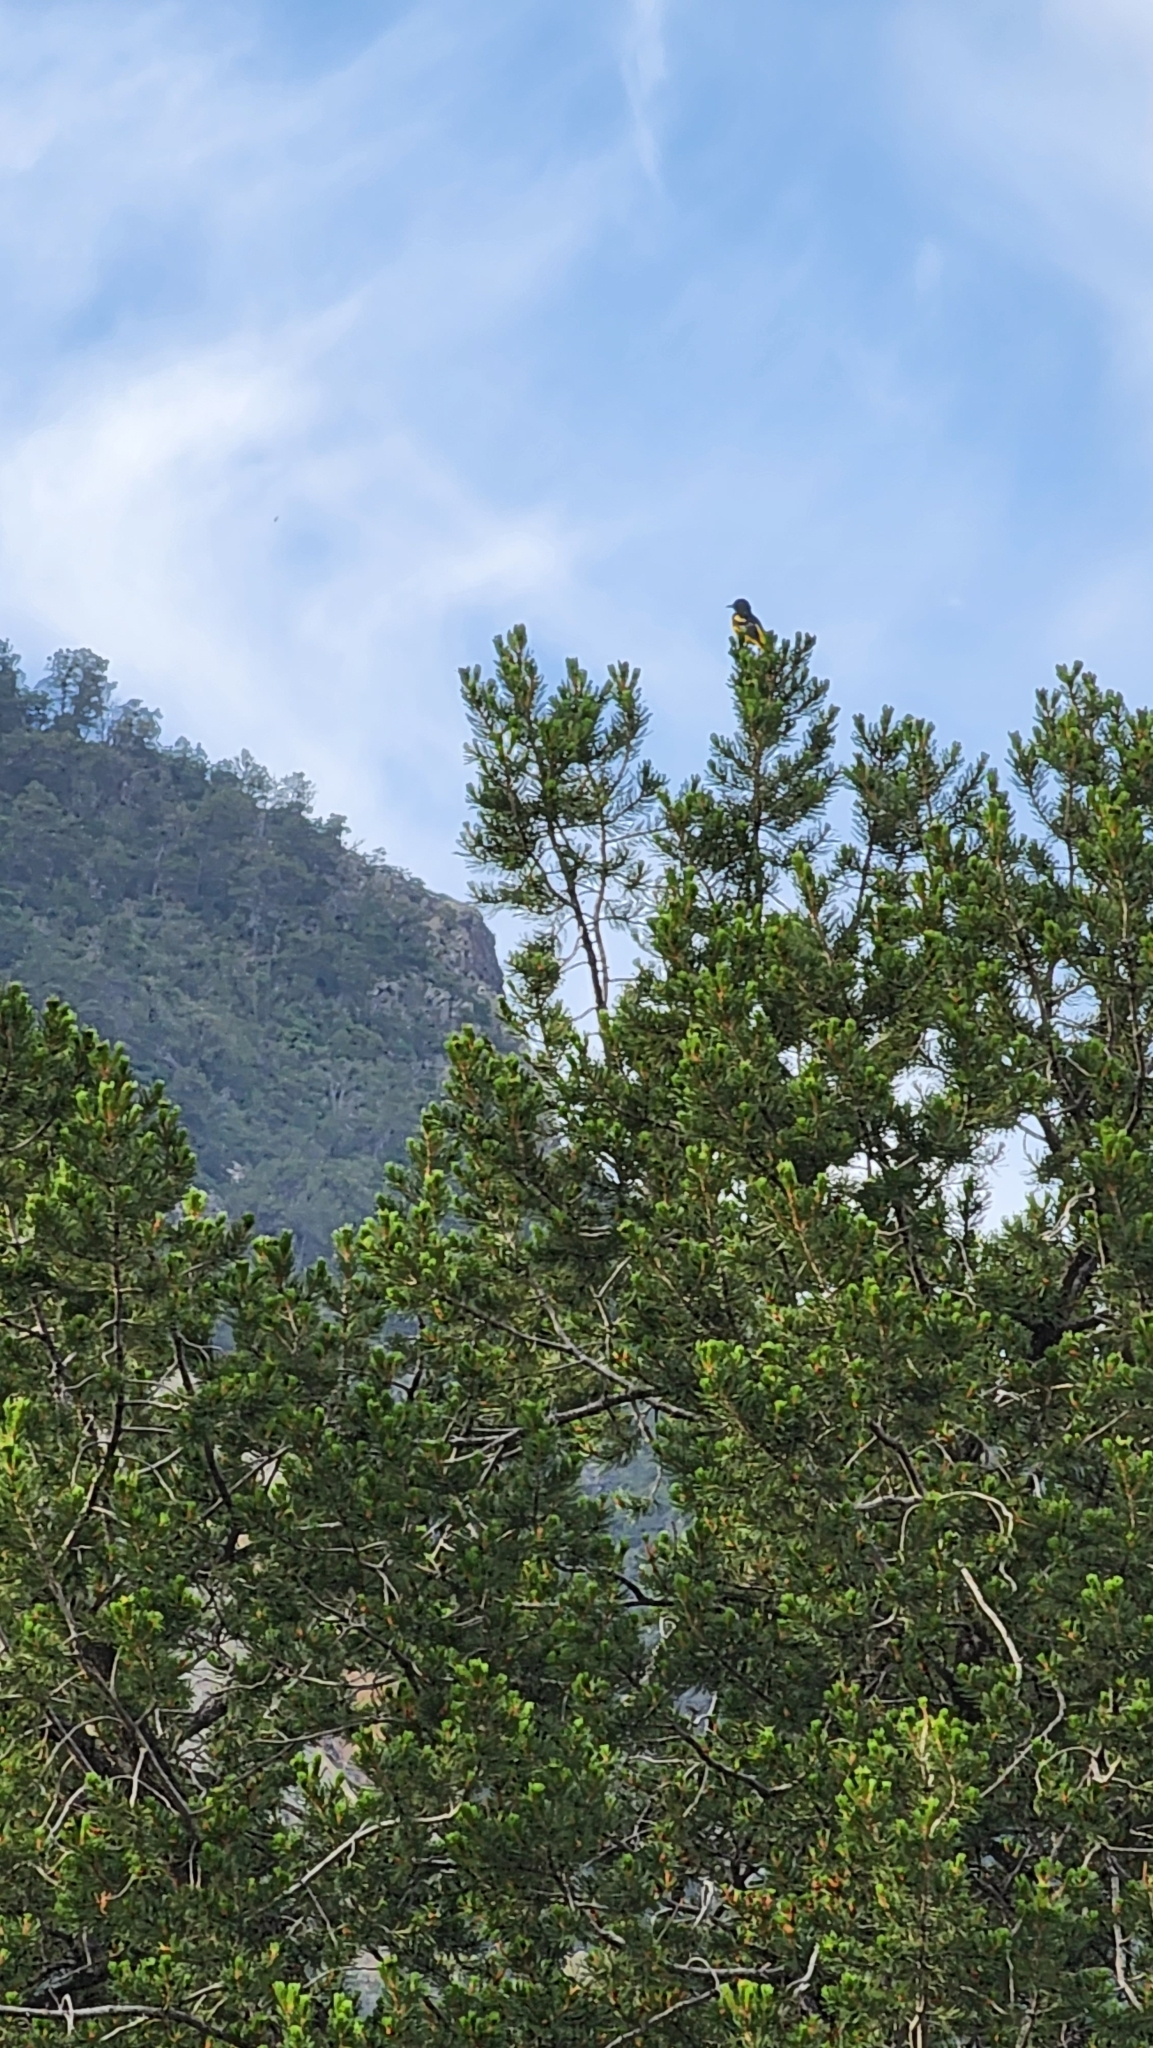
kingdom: Animalia
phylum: Chordata
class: Aves
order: Passeriformes
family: Icteridae
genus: Icterus
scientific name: Icterus parisorum
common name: Scott's oriole
